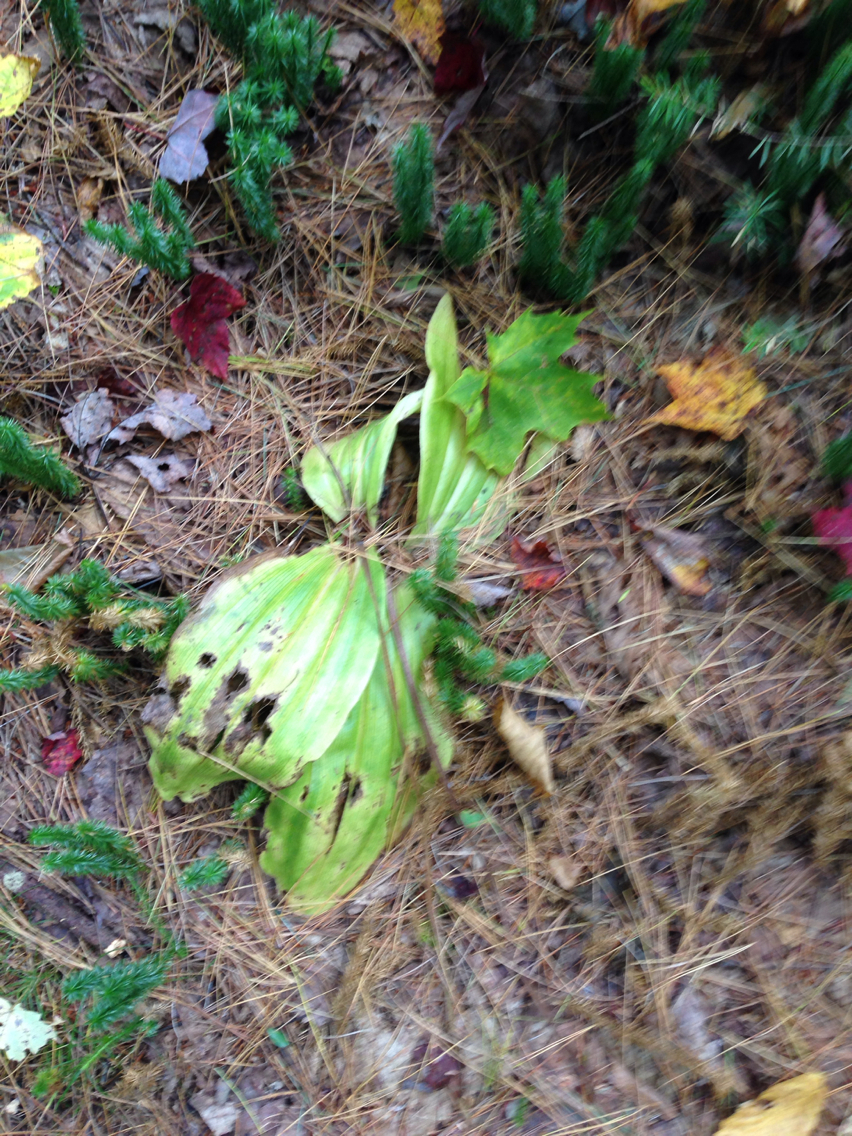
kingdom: Plantae
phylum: Tracheophyta
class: Liliopsida
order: Asparagales
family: Orchidaceae
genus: Cypripedium
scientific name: Cypripedium acaule
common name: Pink lady's-slipper
